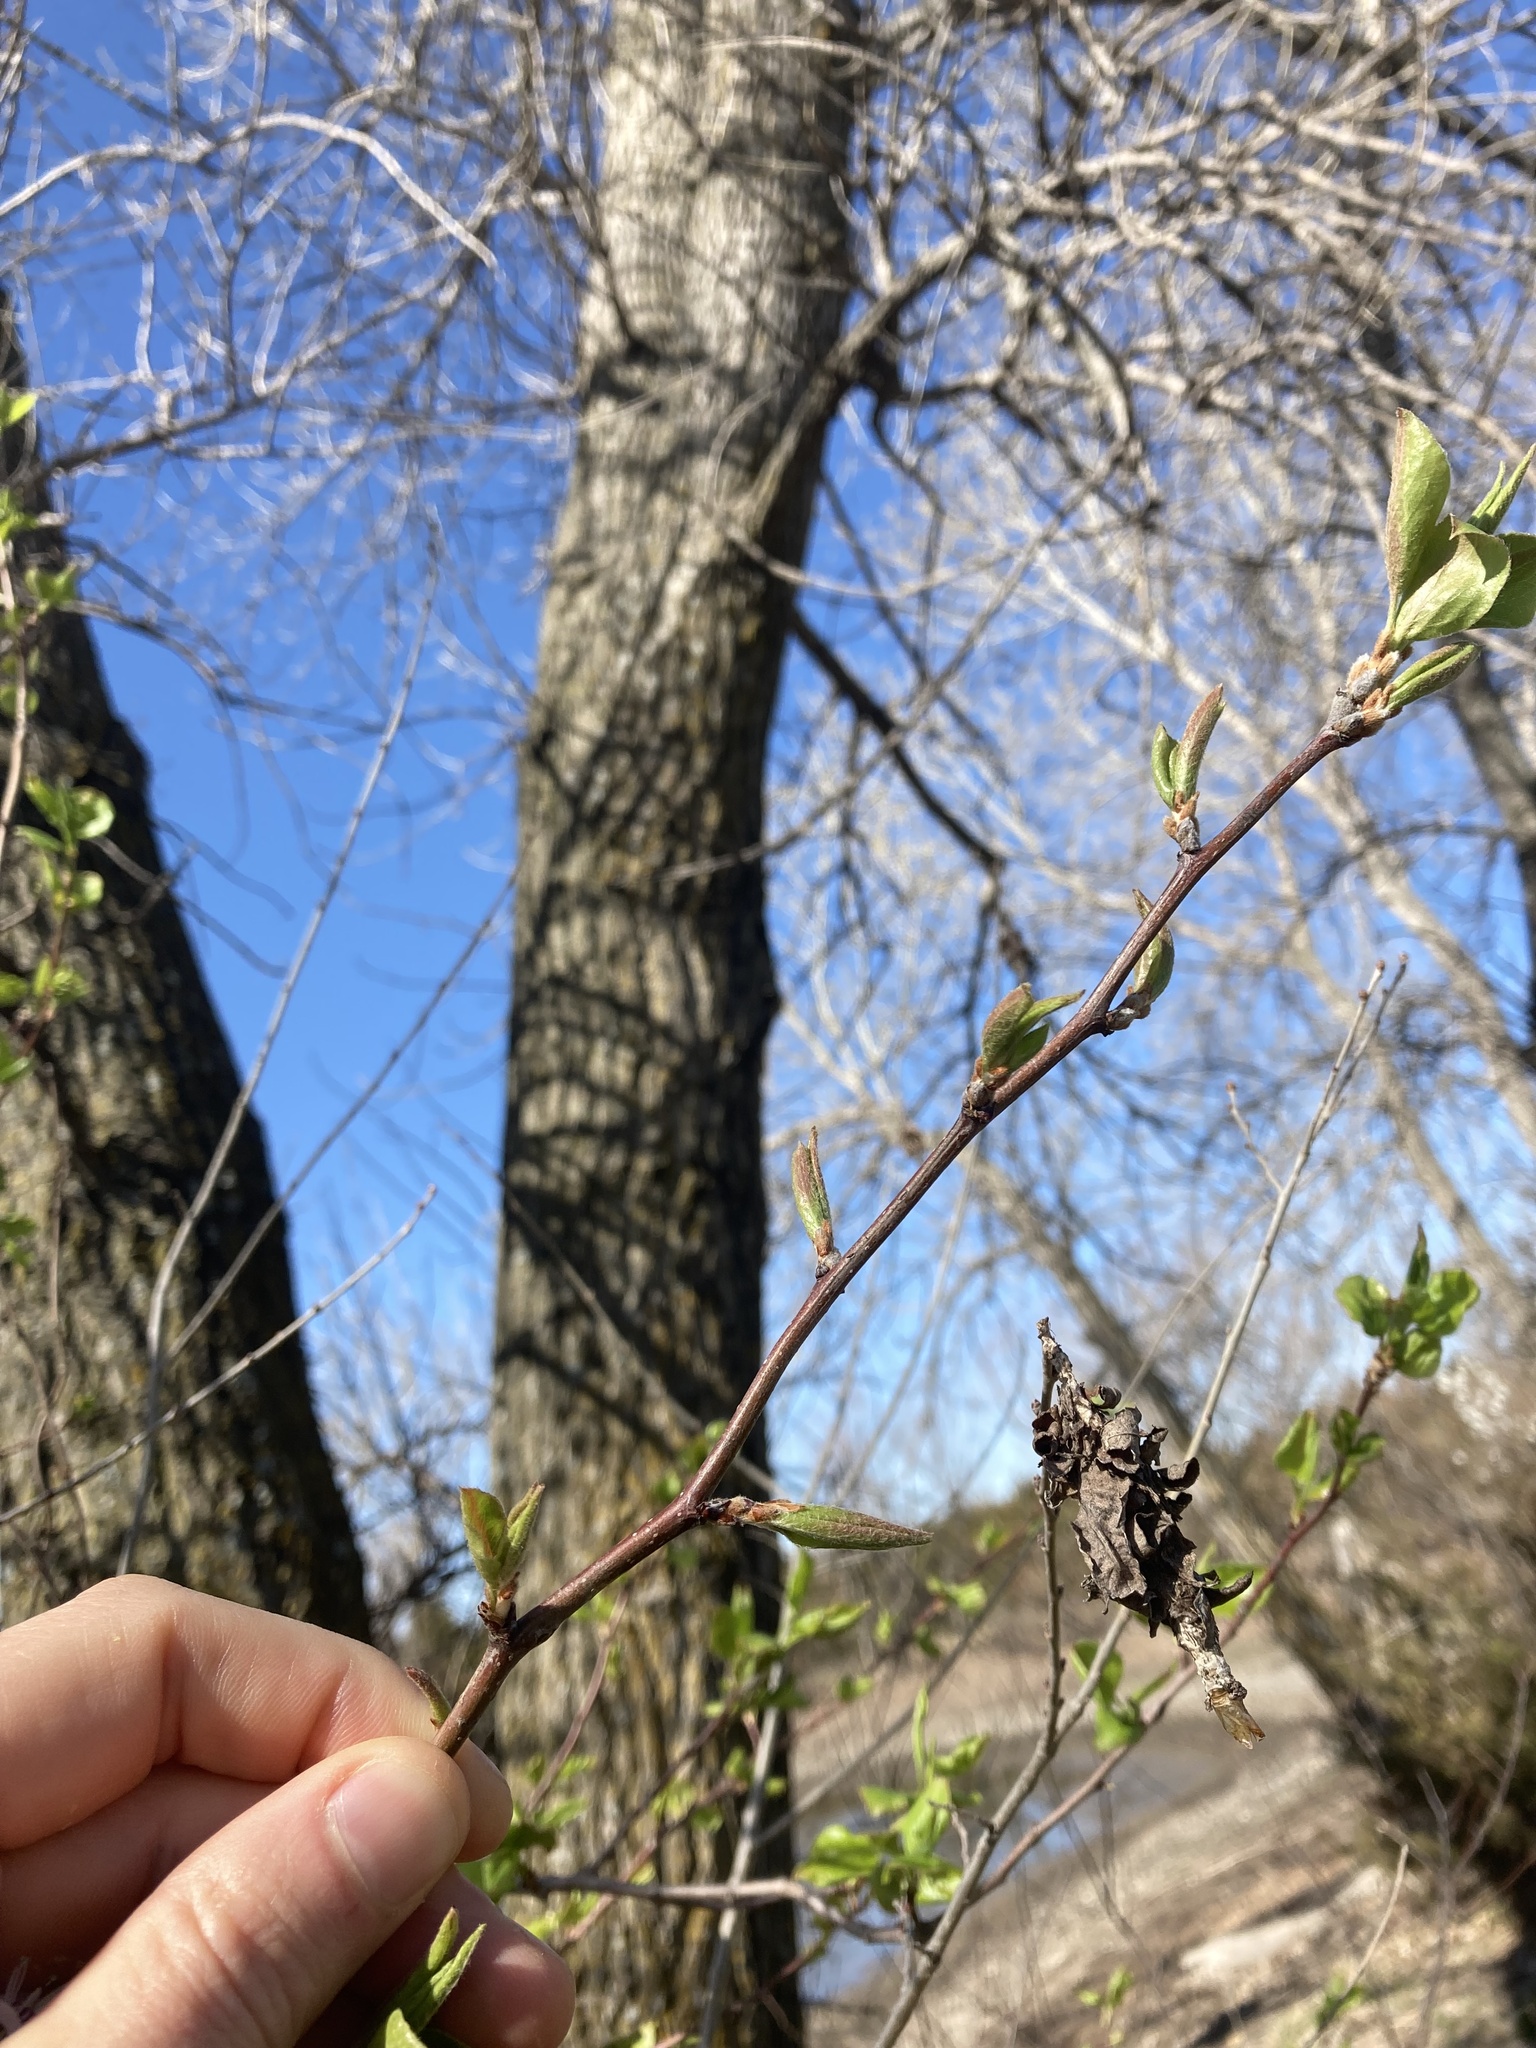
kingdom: Plantae
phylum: Tracheophyta
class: Magnoliopsida
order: Rosales
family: Rosaceae
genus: Pyrus
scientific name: Pyrus calleryana
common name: Callery pear
